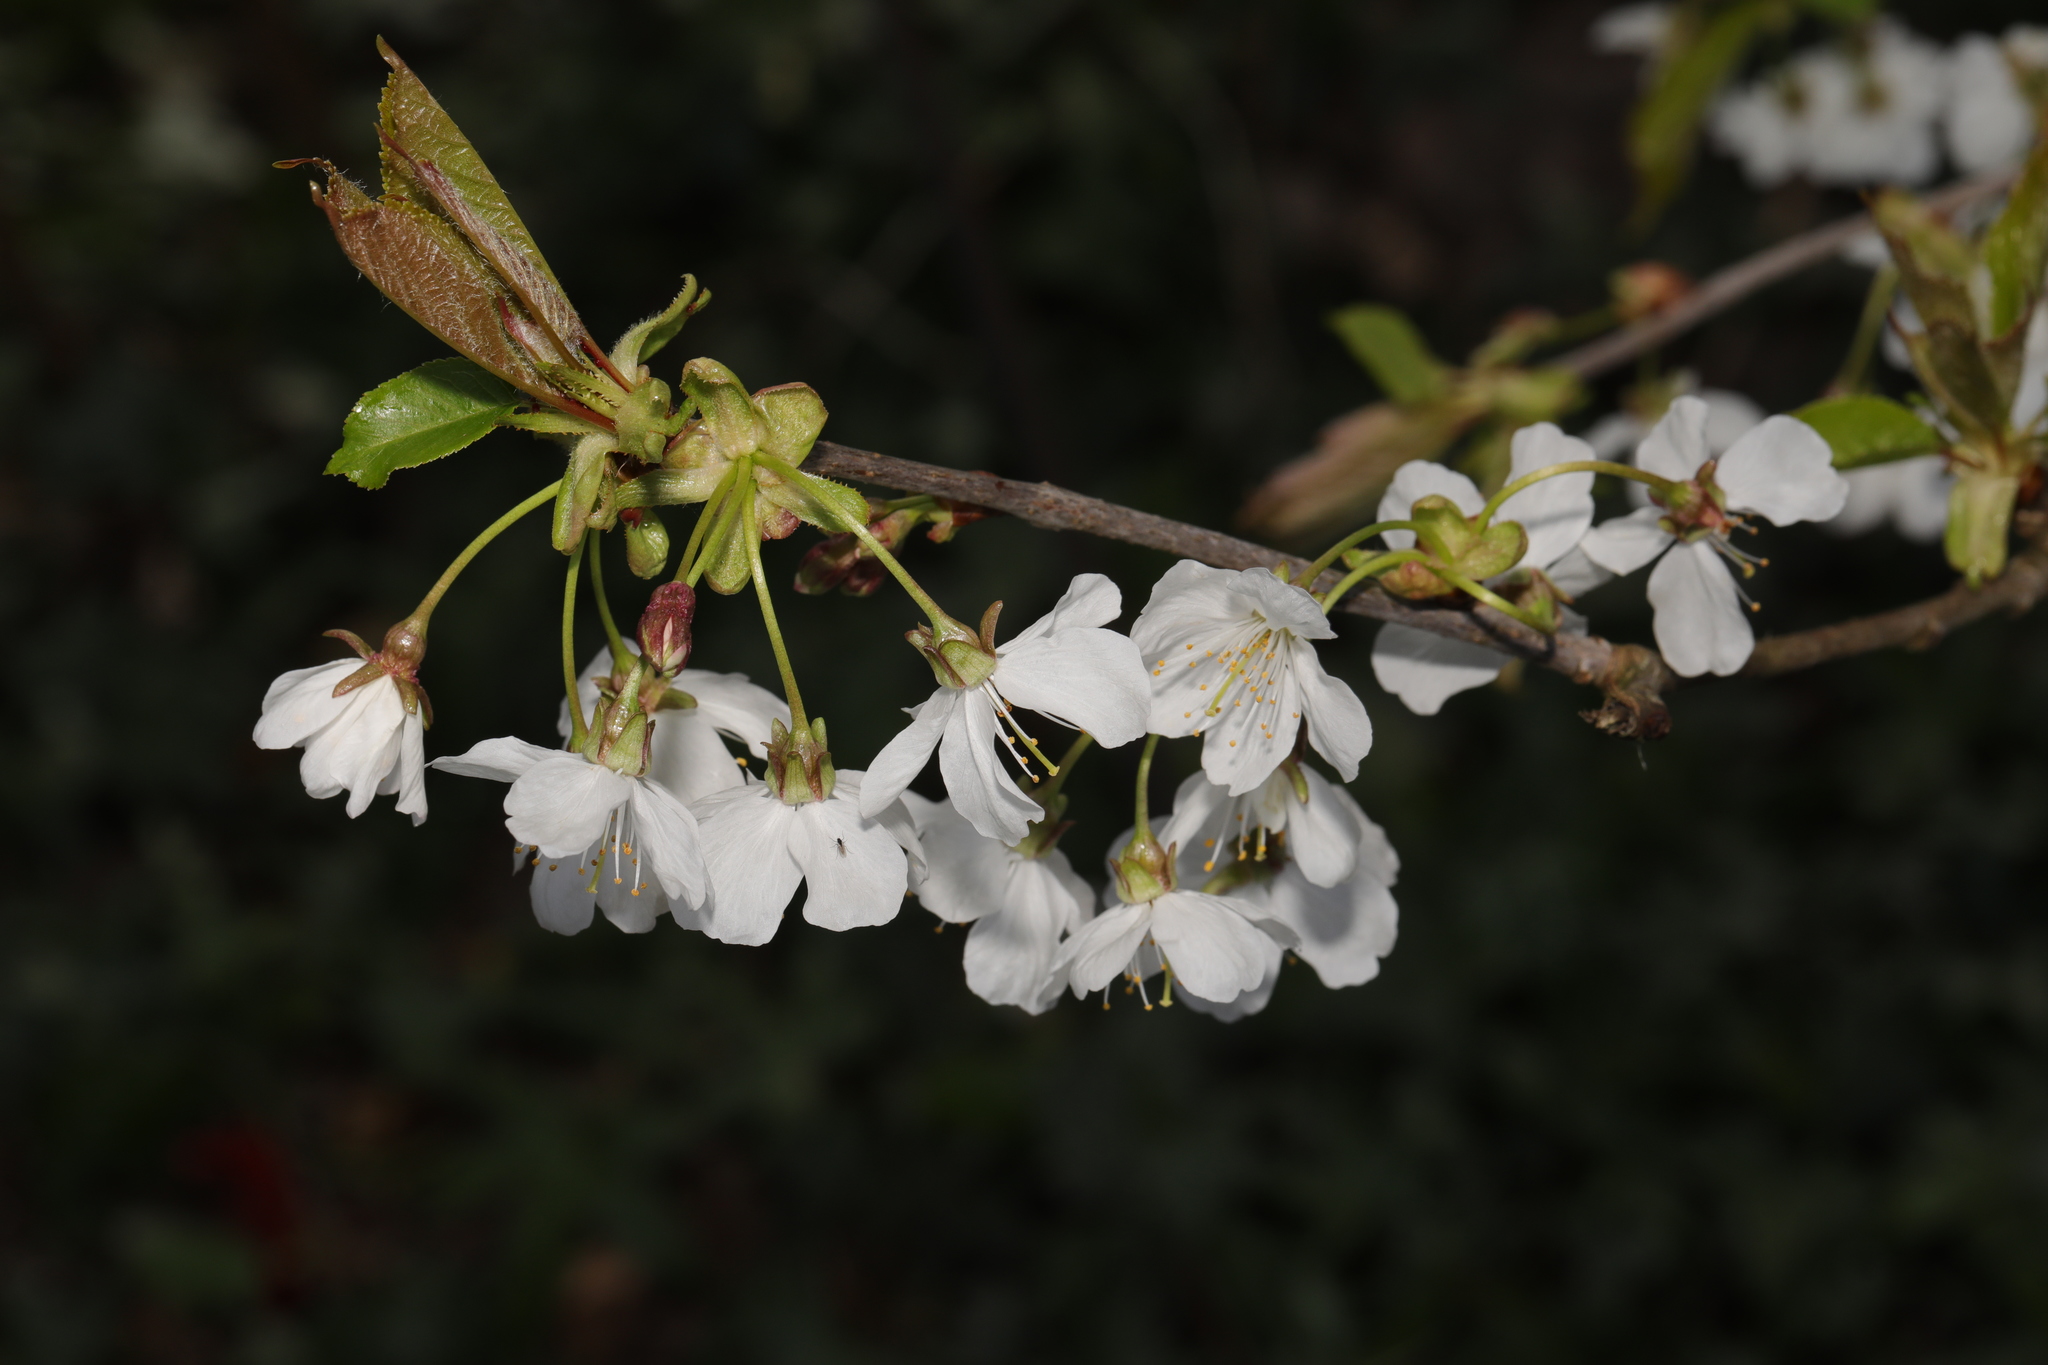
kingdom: Plantae
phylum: Tracheophyta
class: Magnoliopsida
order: Rosales
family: Rosaceae
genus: Prunus
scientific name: Prunus avium
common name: Sweet cherry
